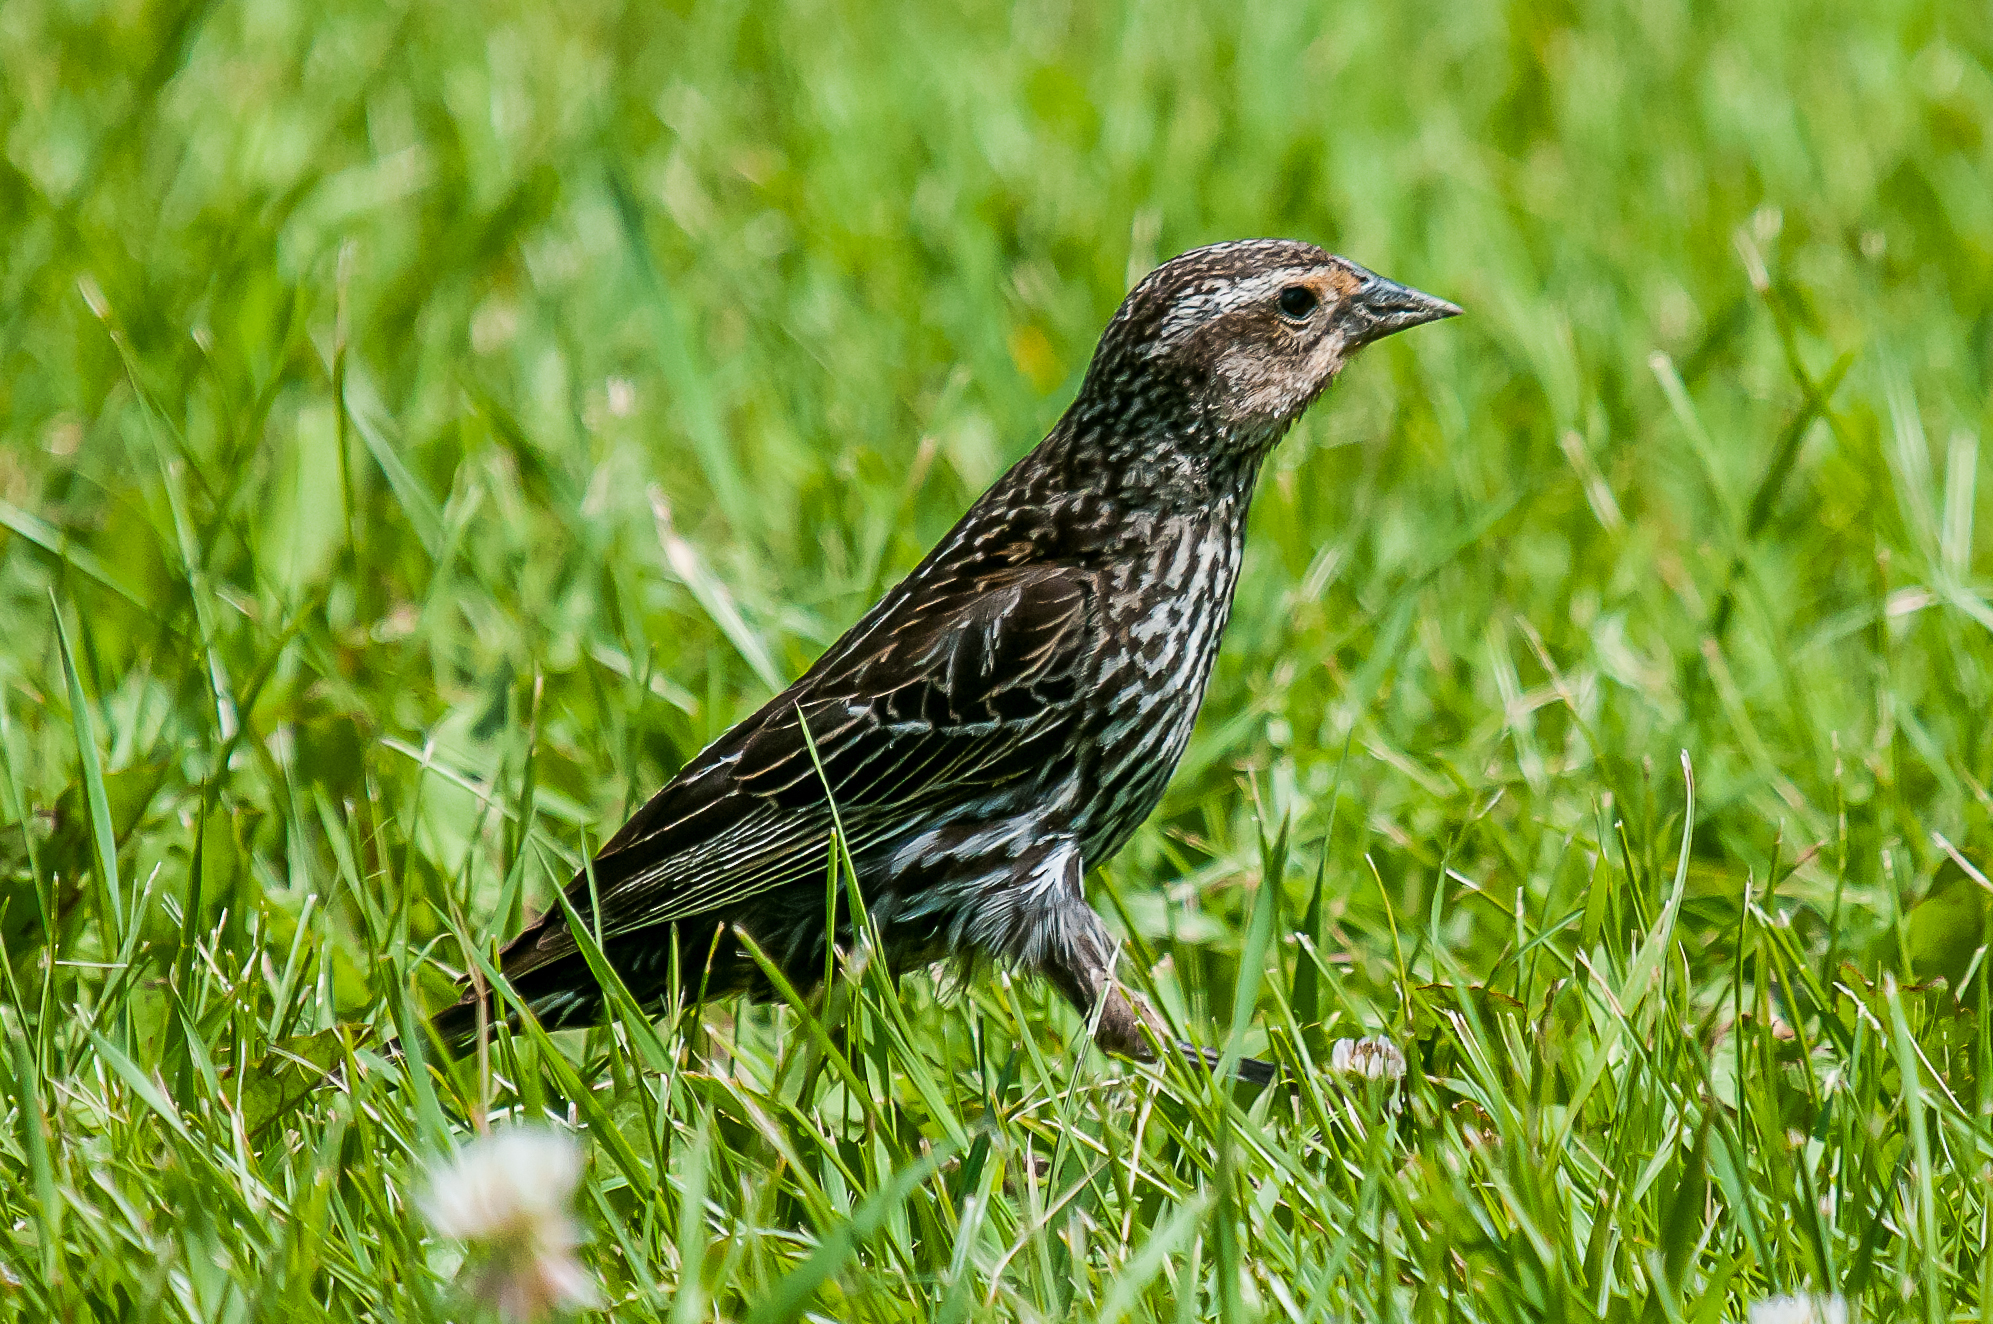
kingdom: Animalia
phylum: Chordata
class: Aves
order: Passeriformes
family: Icteridae
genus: Agelaius
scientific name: Agelaius phoeniceus
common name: Red-winged blackbird
